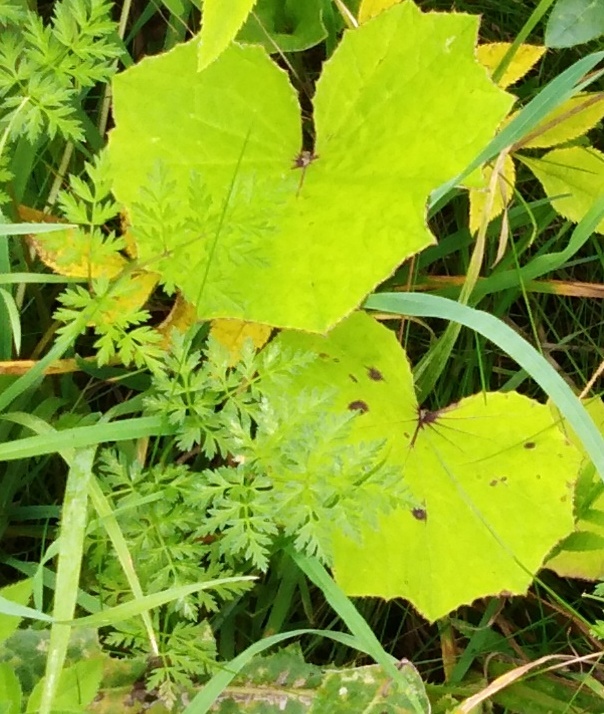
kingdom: Plantae
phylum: Tracheophyta
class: Magnoliopsida
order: Asterales
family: Asteraceae
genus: Tussilago
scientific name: Tussilago farfara
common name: Coltsfoot
